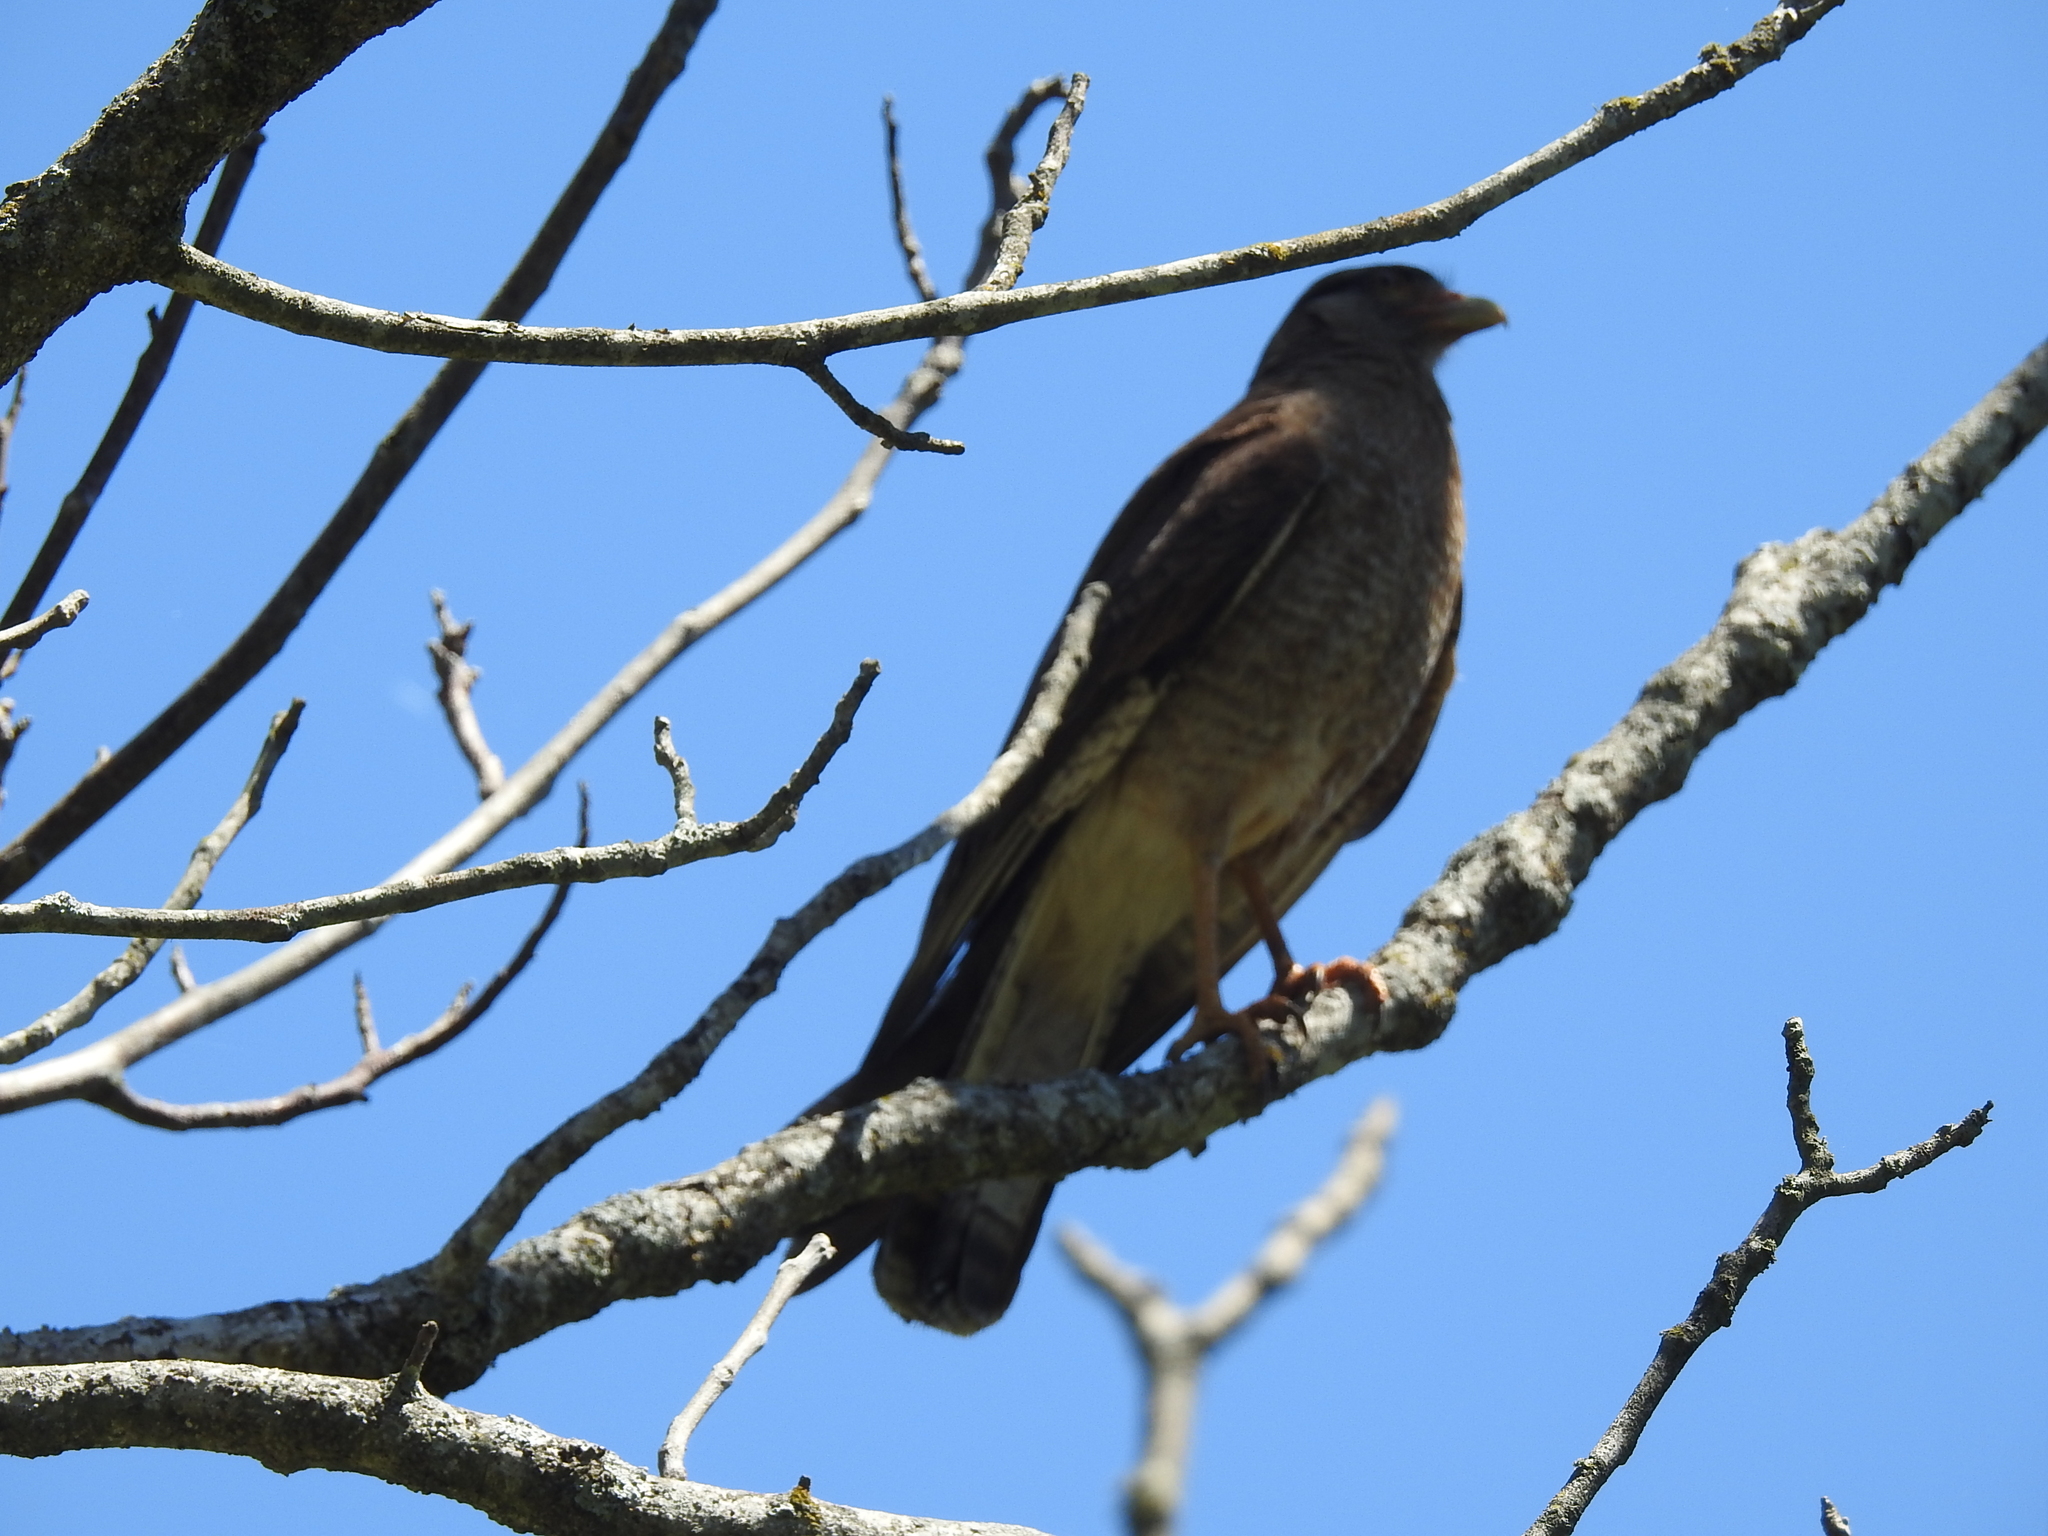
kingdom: Animalia
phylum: Chordata
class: Aves
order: Falconiformes
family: Falconidae
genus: Daptrius
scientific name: Daptrius
